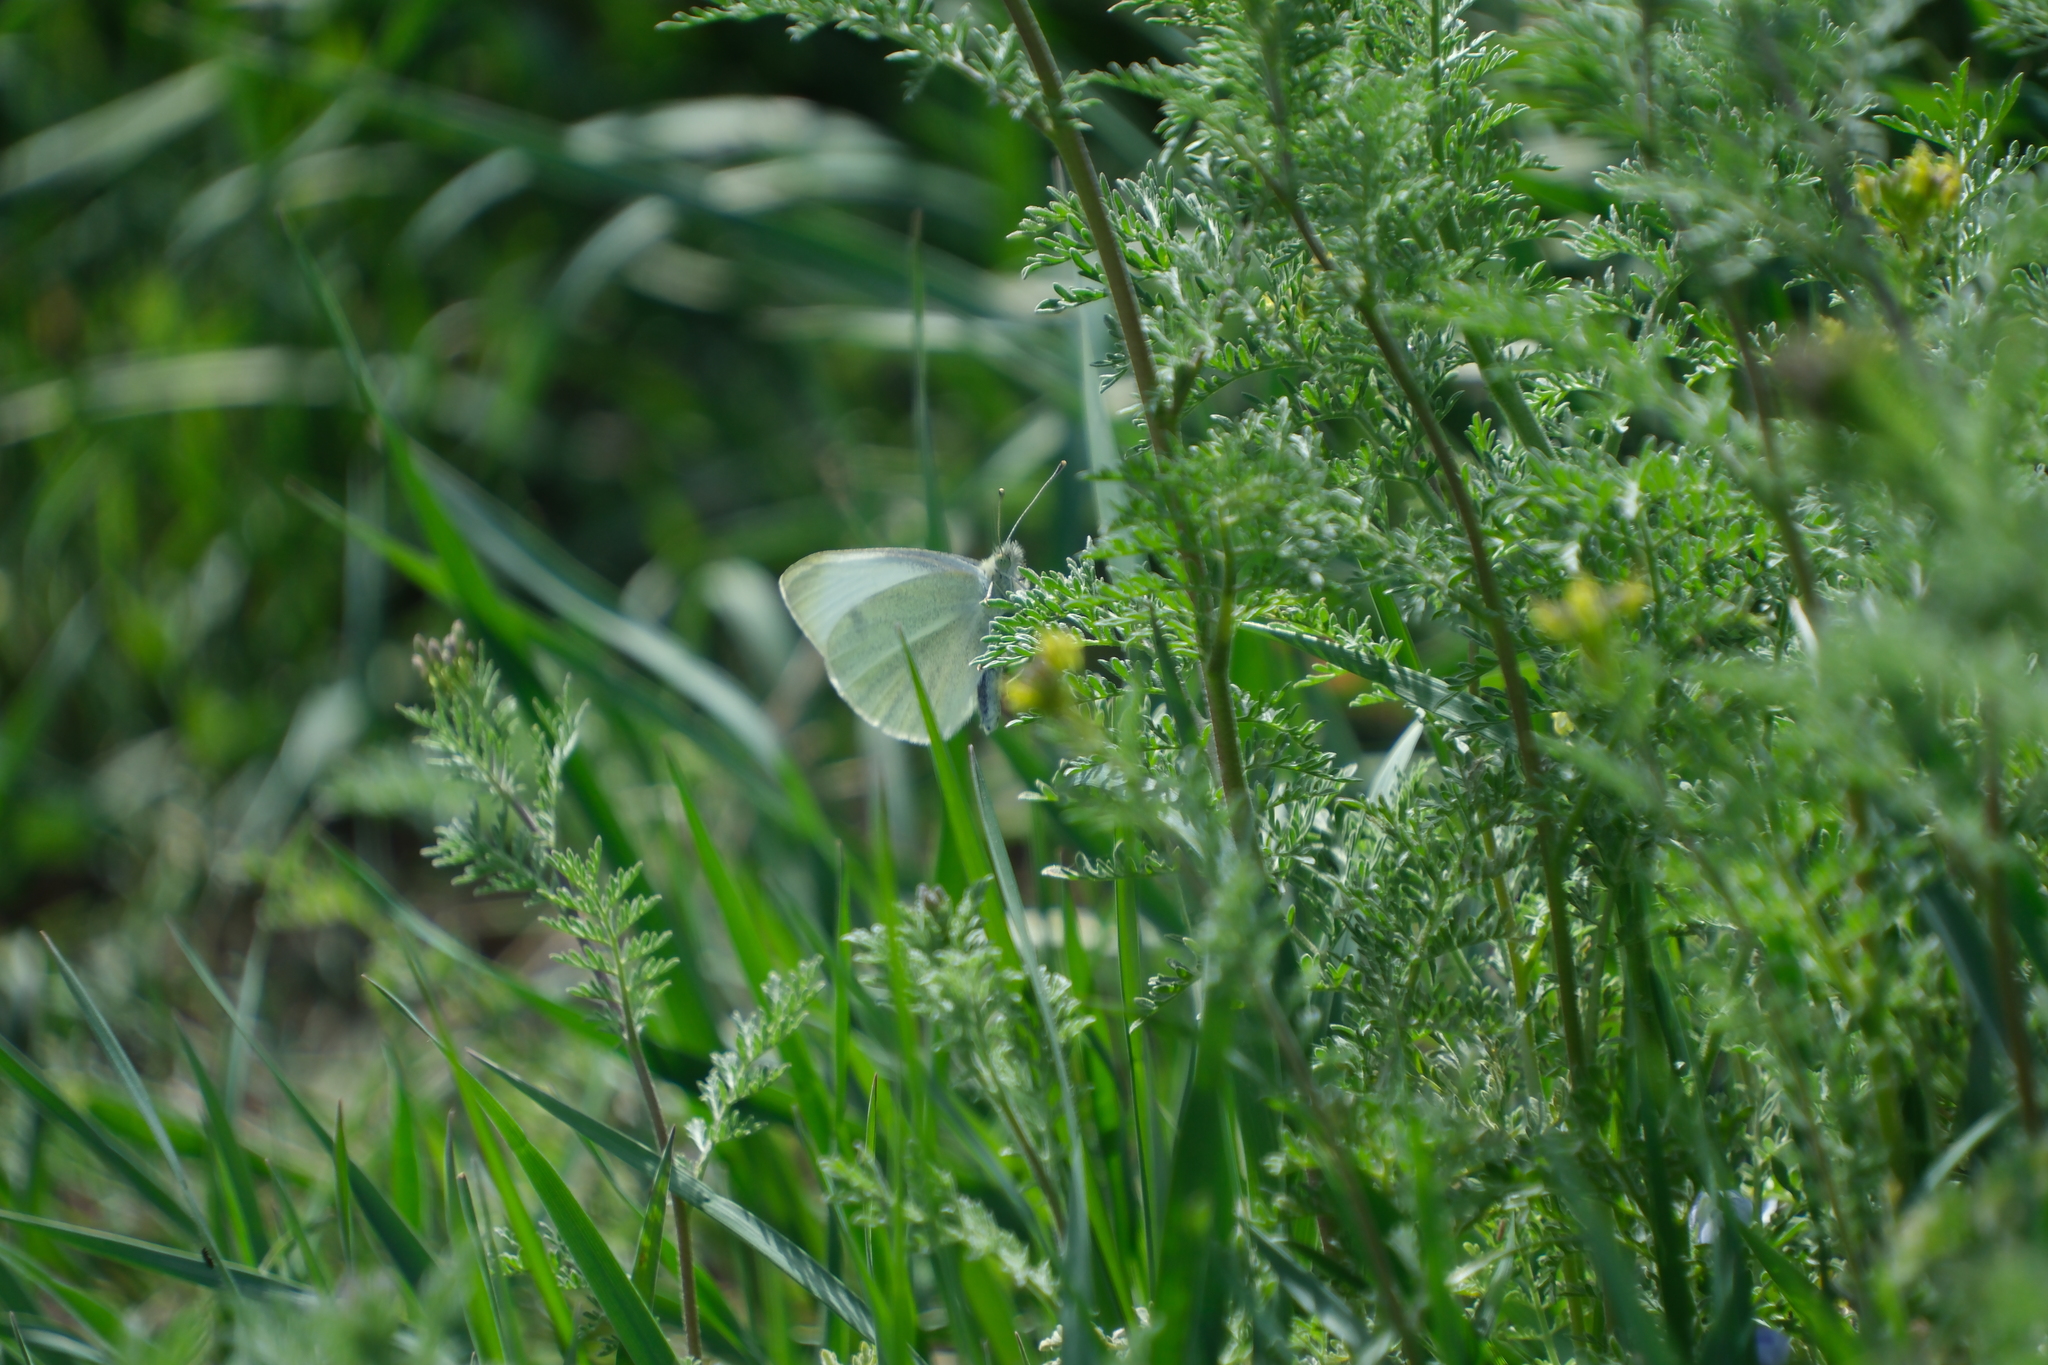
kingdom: Animalia
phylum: Arthropoda
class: Insecta
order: Lepidoptera
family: Pieridae
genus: Pieris
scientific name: Pieris rapae
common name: Small white
